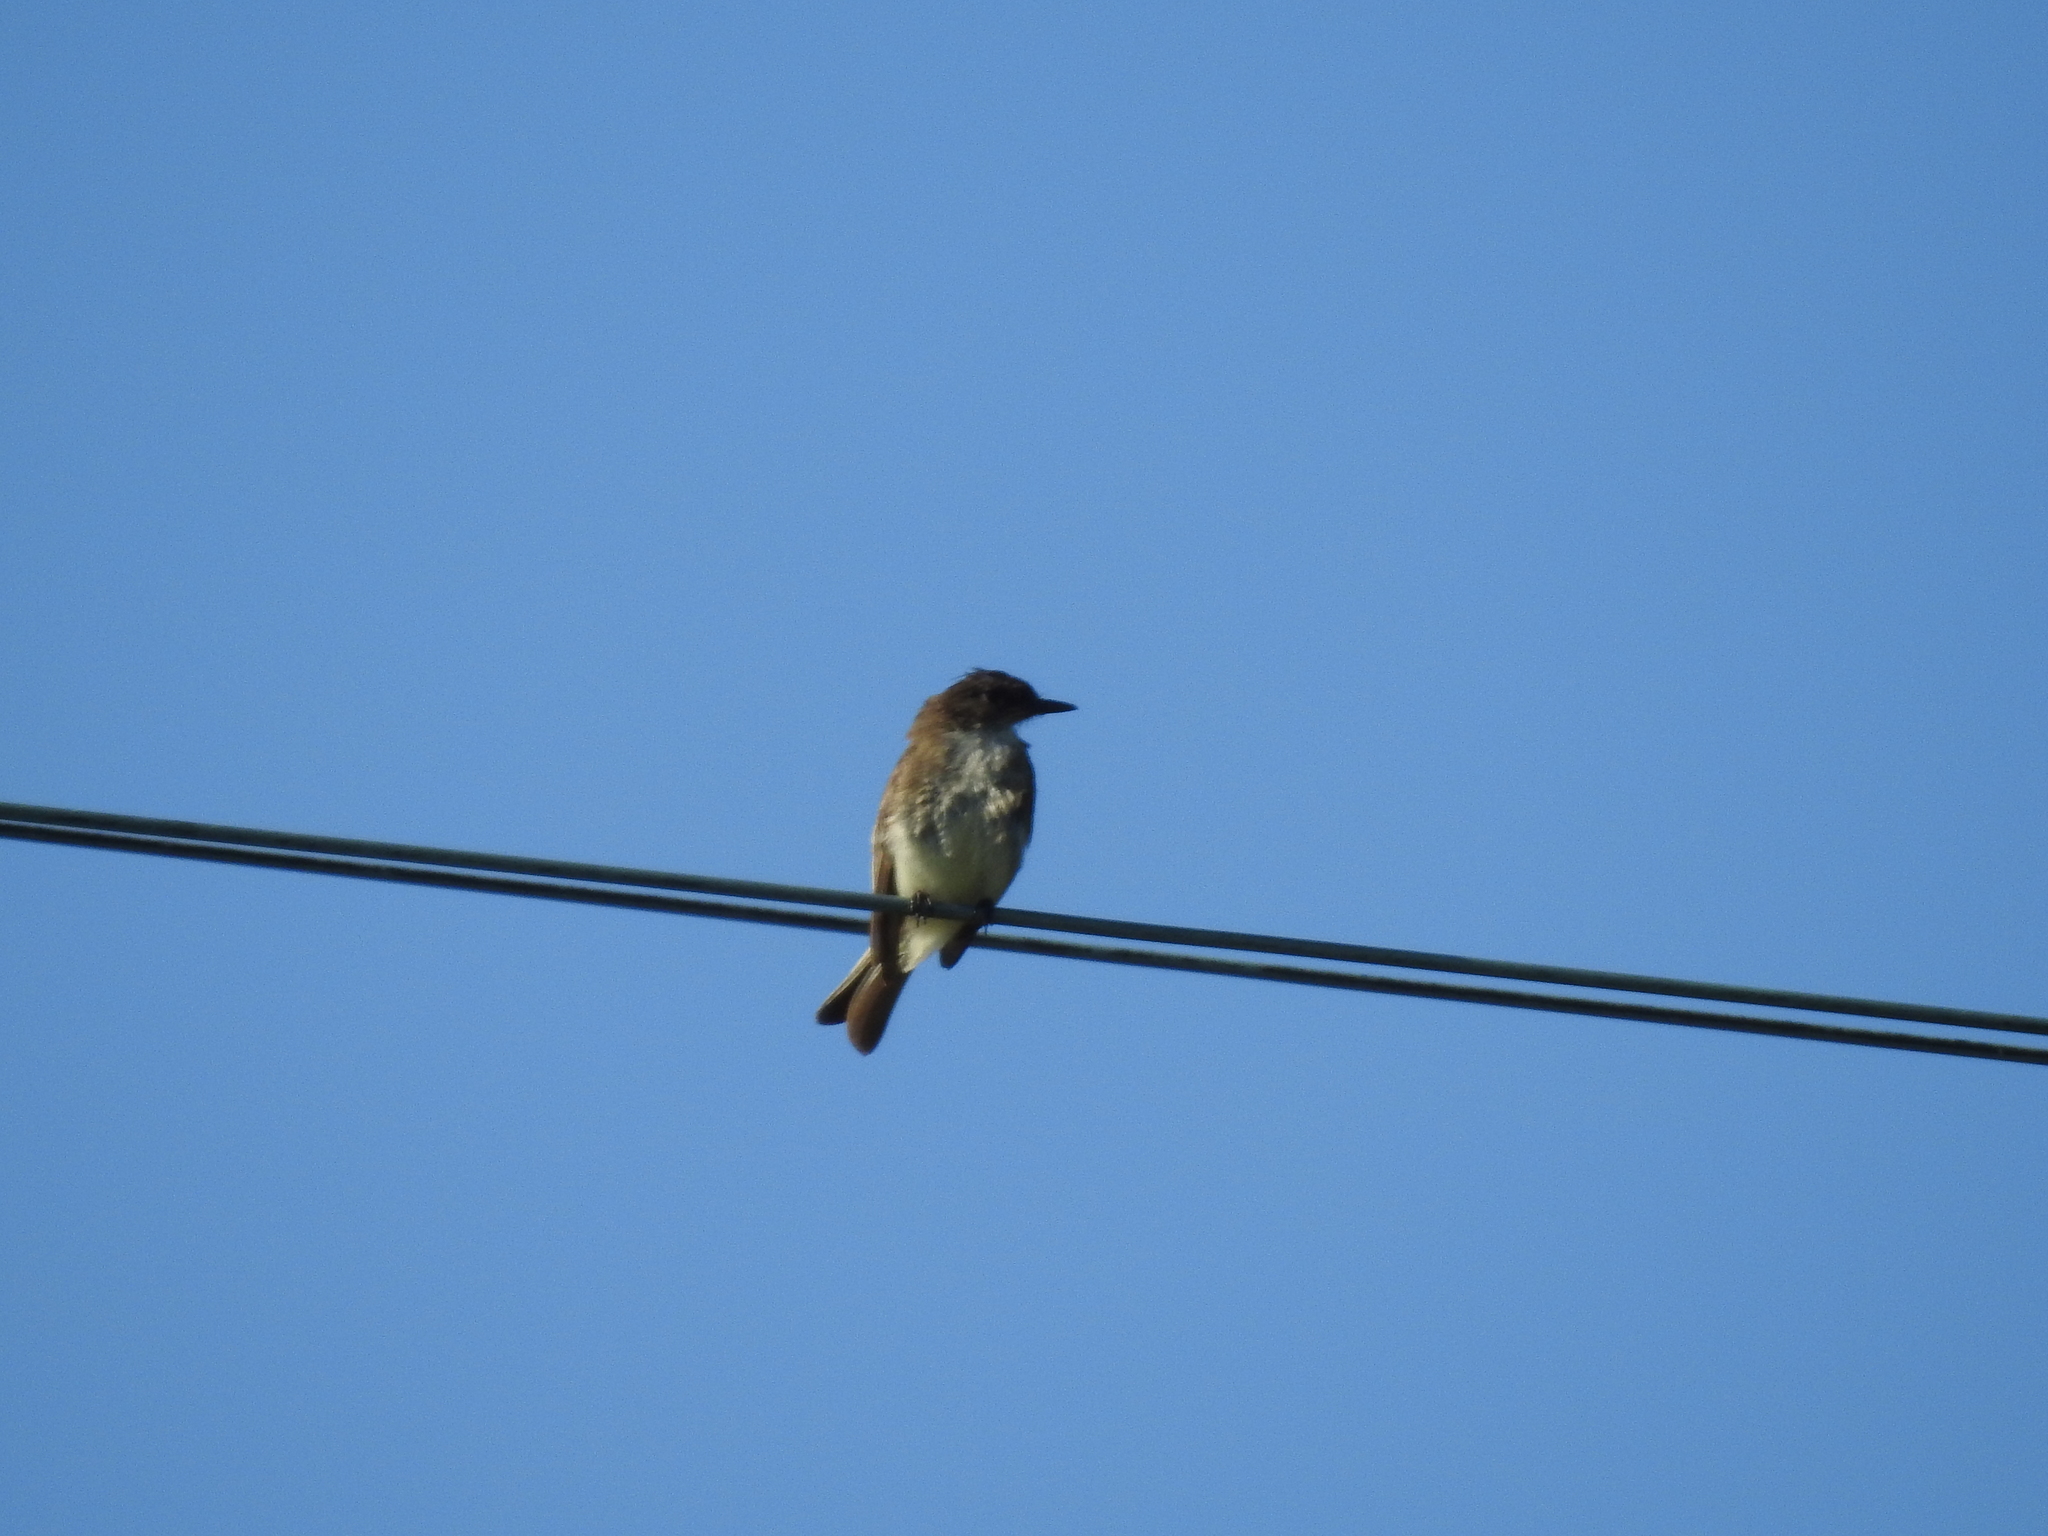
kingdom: Animalia
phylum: Chordata
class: Aves
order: Passeriformes
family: Tyrannidae
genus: Sayornis
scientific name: Sayornis phoebe
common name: Eastern phoebe
